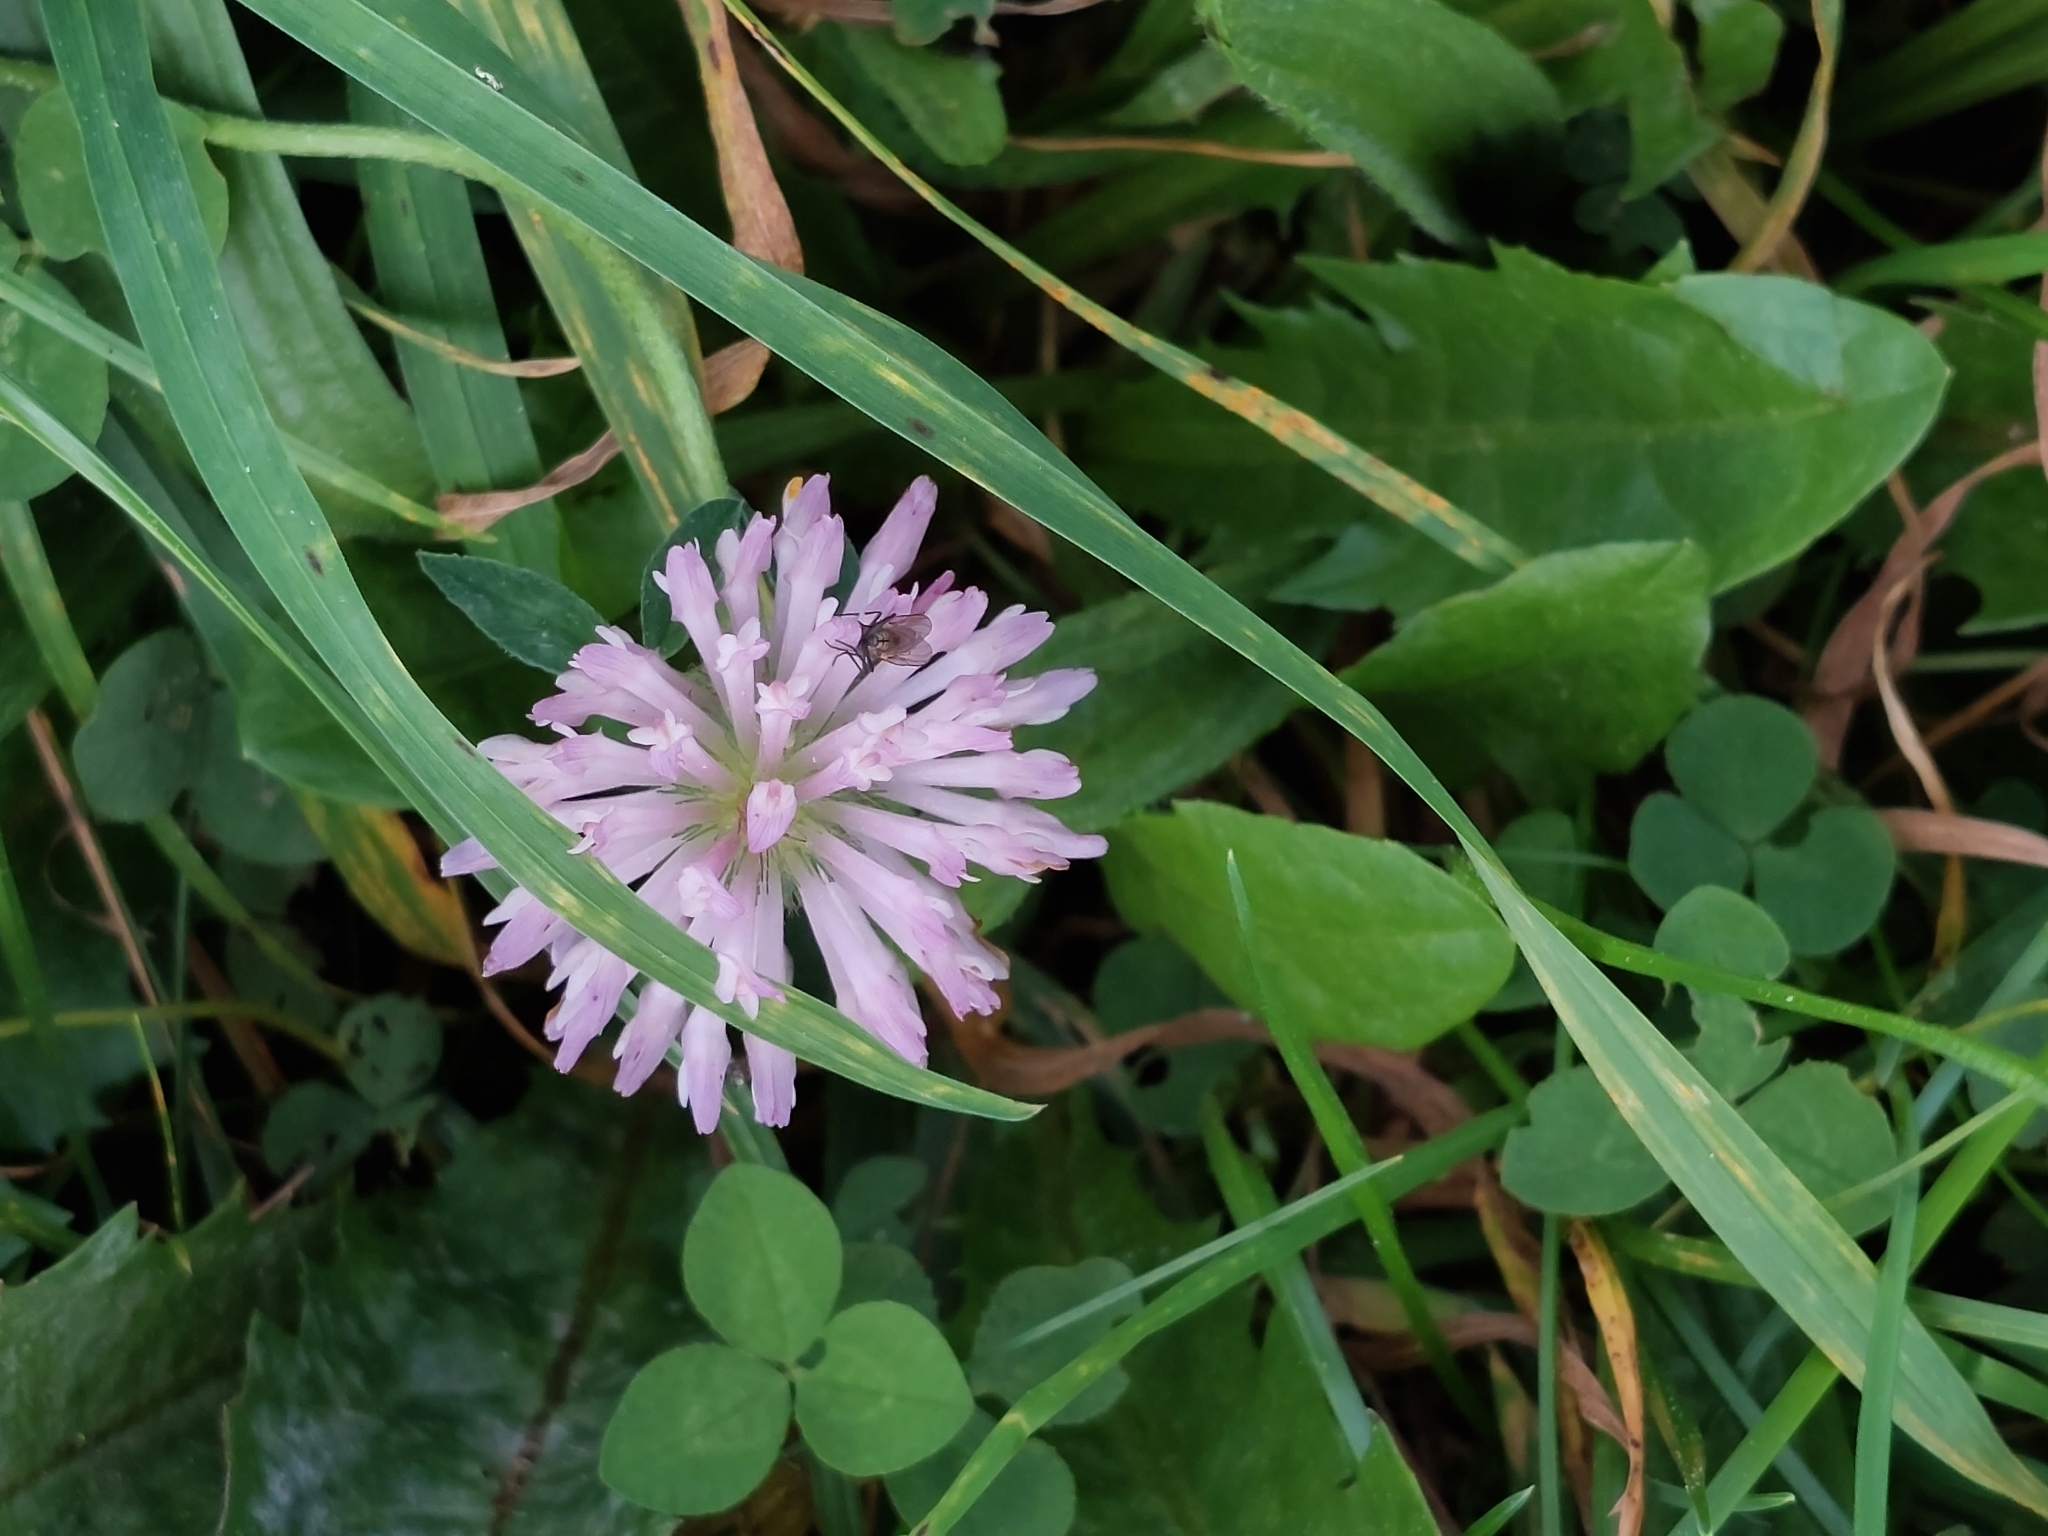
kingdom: Plantae
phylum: Tracheophyta
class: Magnoliopsida
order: Fabales
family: Fabaceae
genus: Trifolium
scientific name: Trifolium pratense
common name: Red clover
